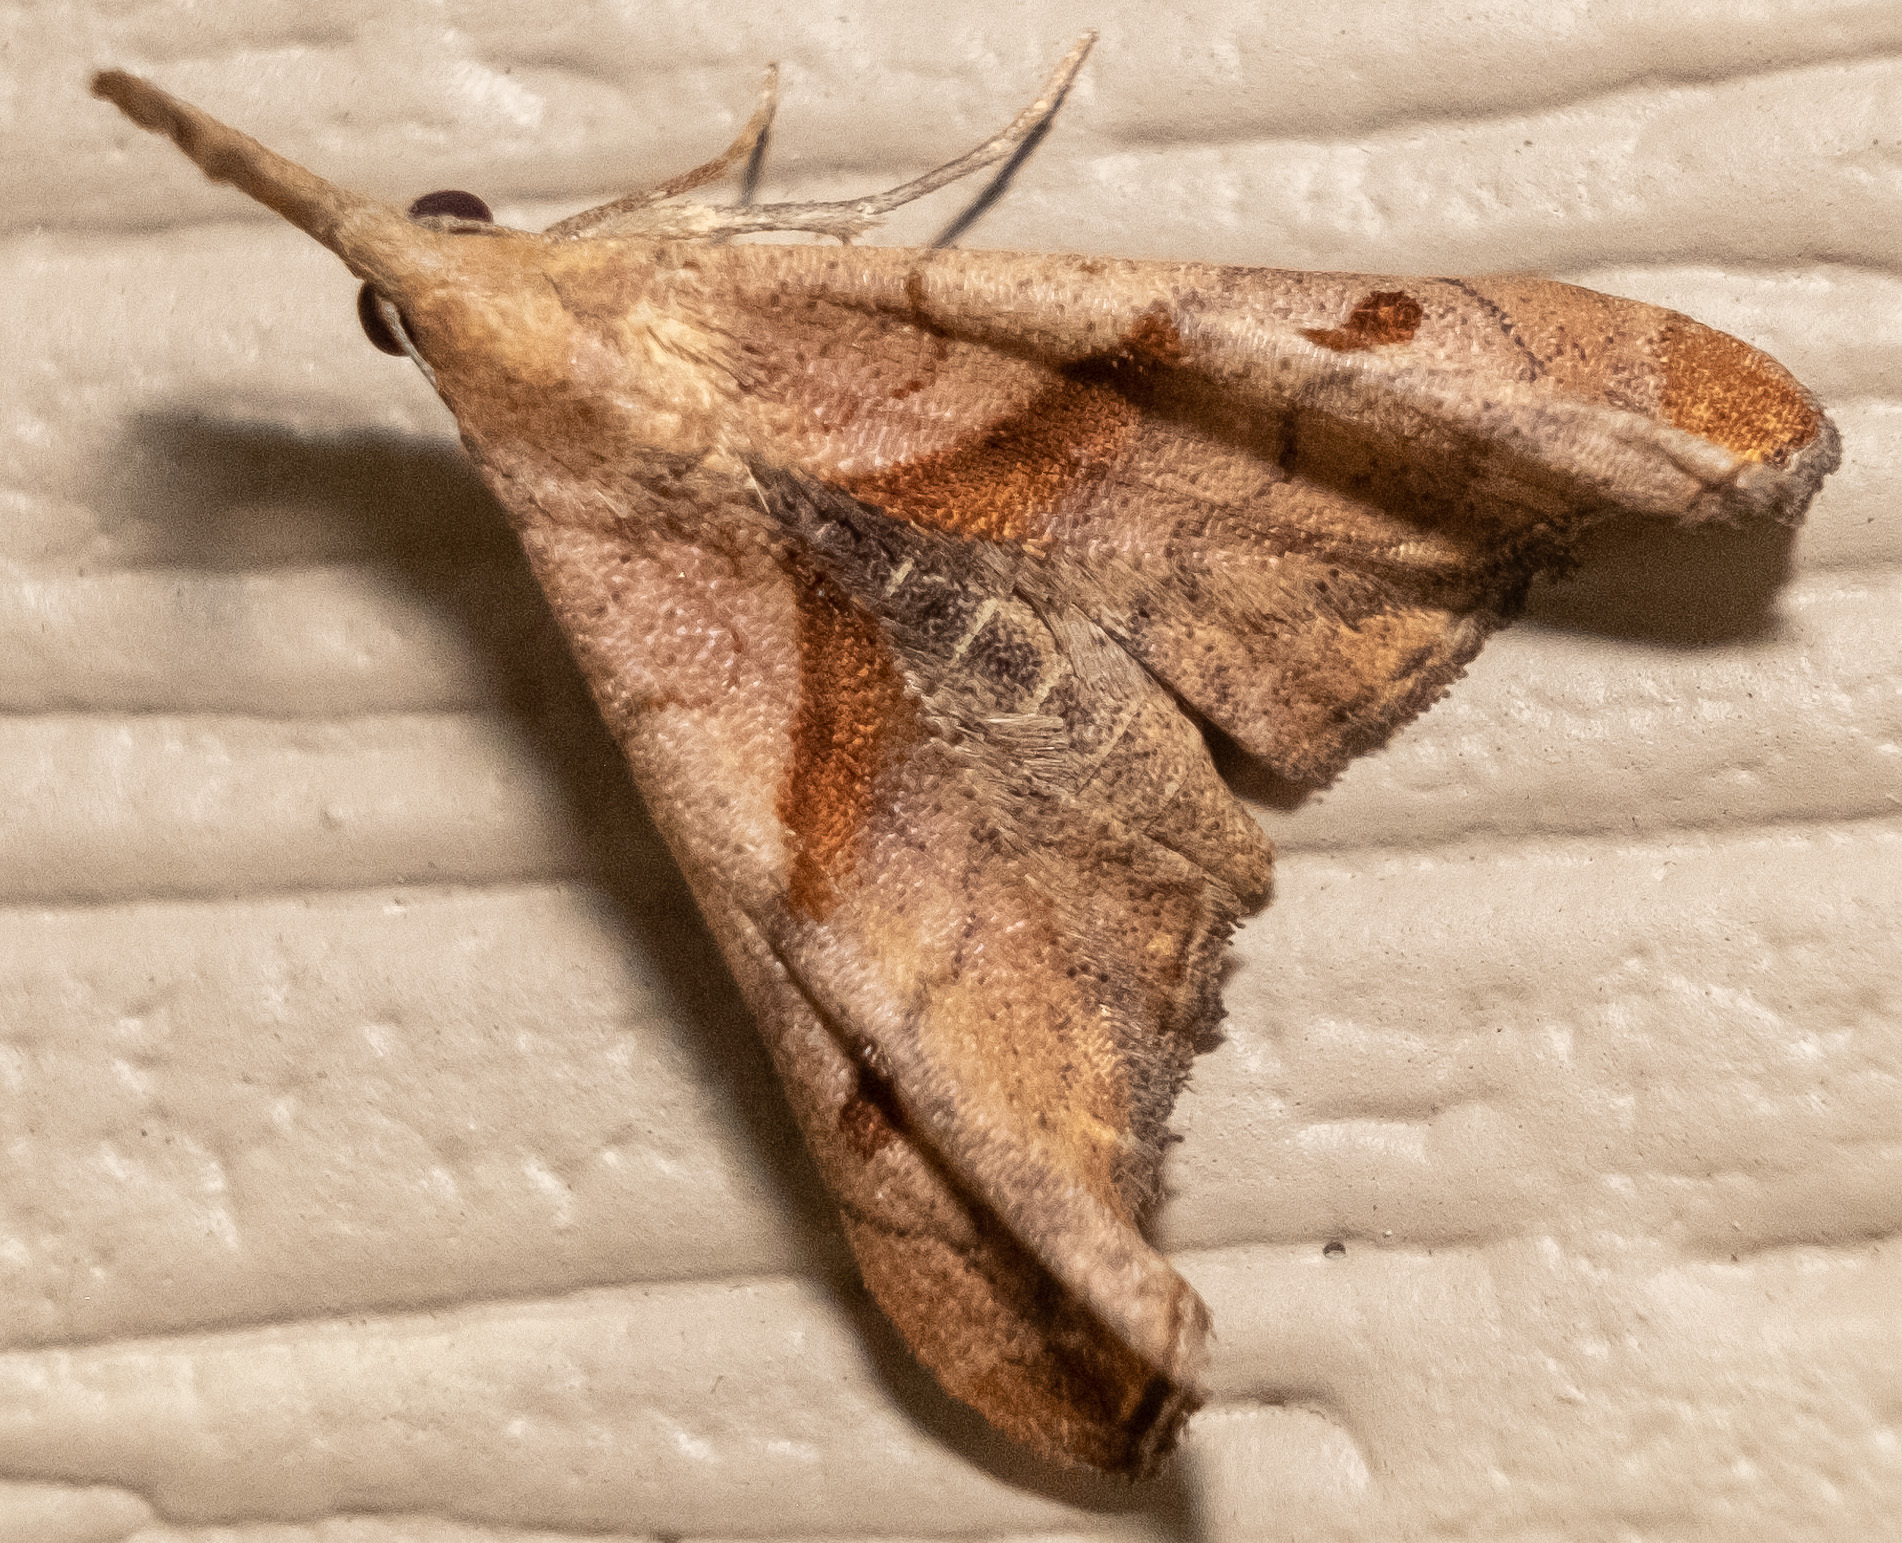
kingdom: Animalia
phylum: Arthropoda
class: Insecta
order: Lepidoptera
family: Erebidae
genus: Palthis
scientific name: Palthis angulalis
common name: Dark-spotted palthis moth
